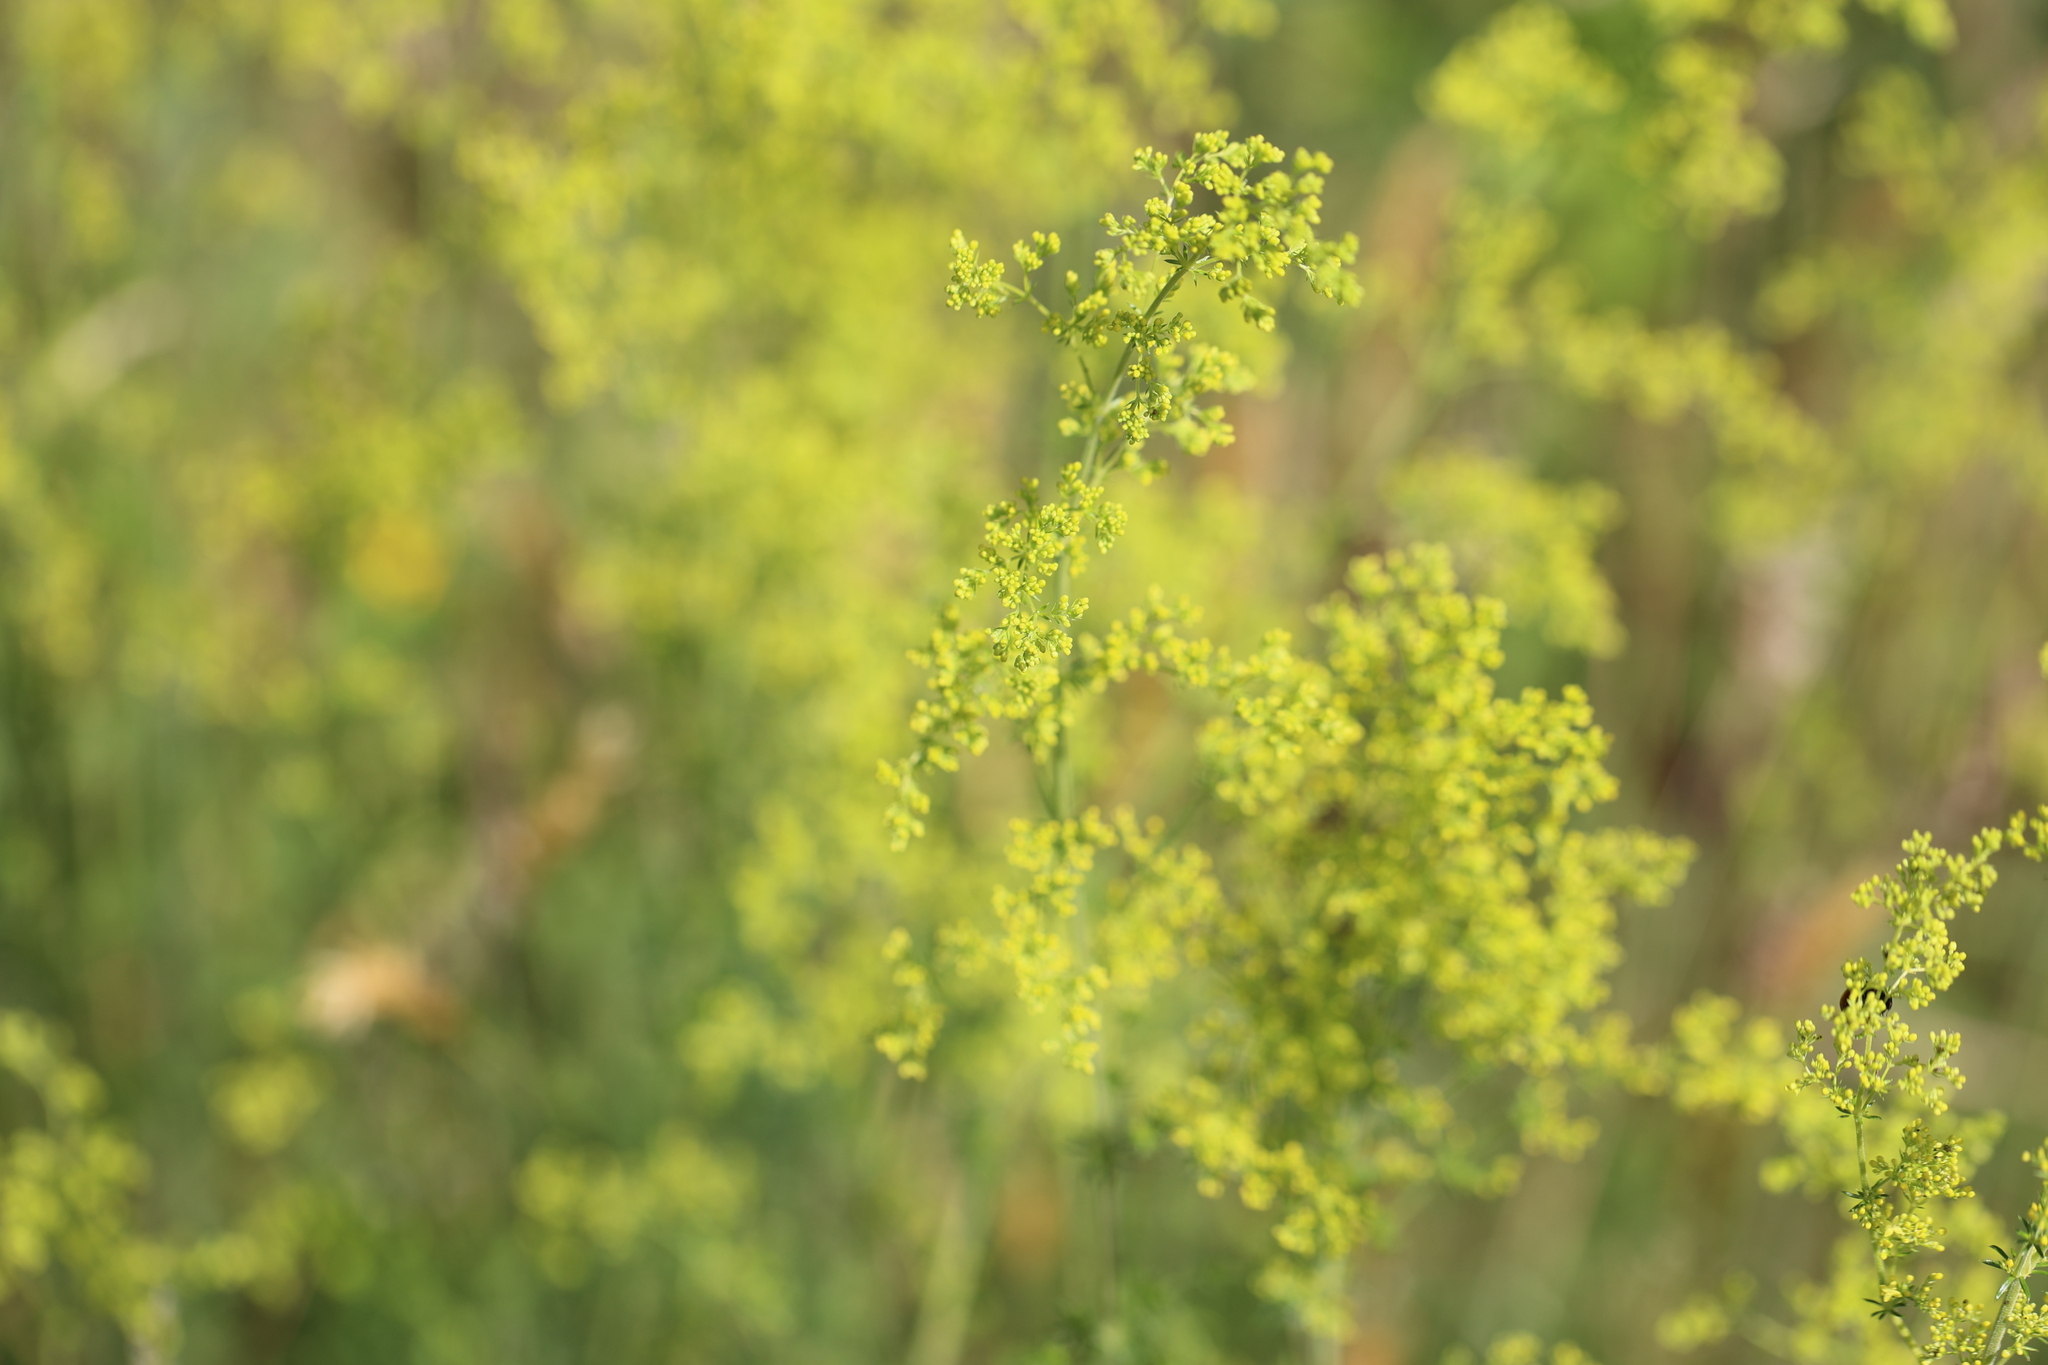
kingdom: Plantae
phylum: Tracheophyta
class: Magnoliopsida
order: Gentianales
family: Rubiaceae
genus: Galium
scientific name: Galium verum
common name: Lady's bedstraw
